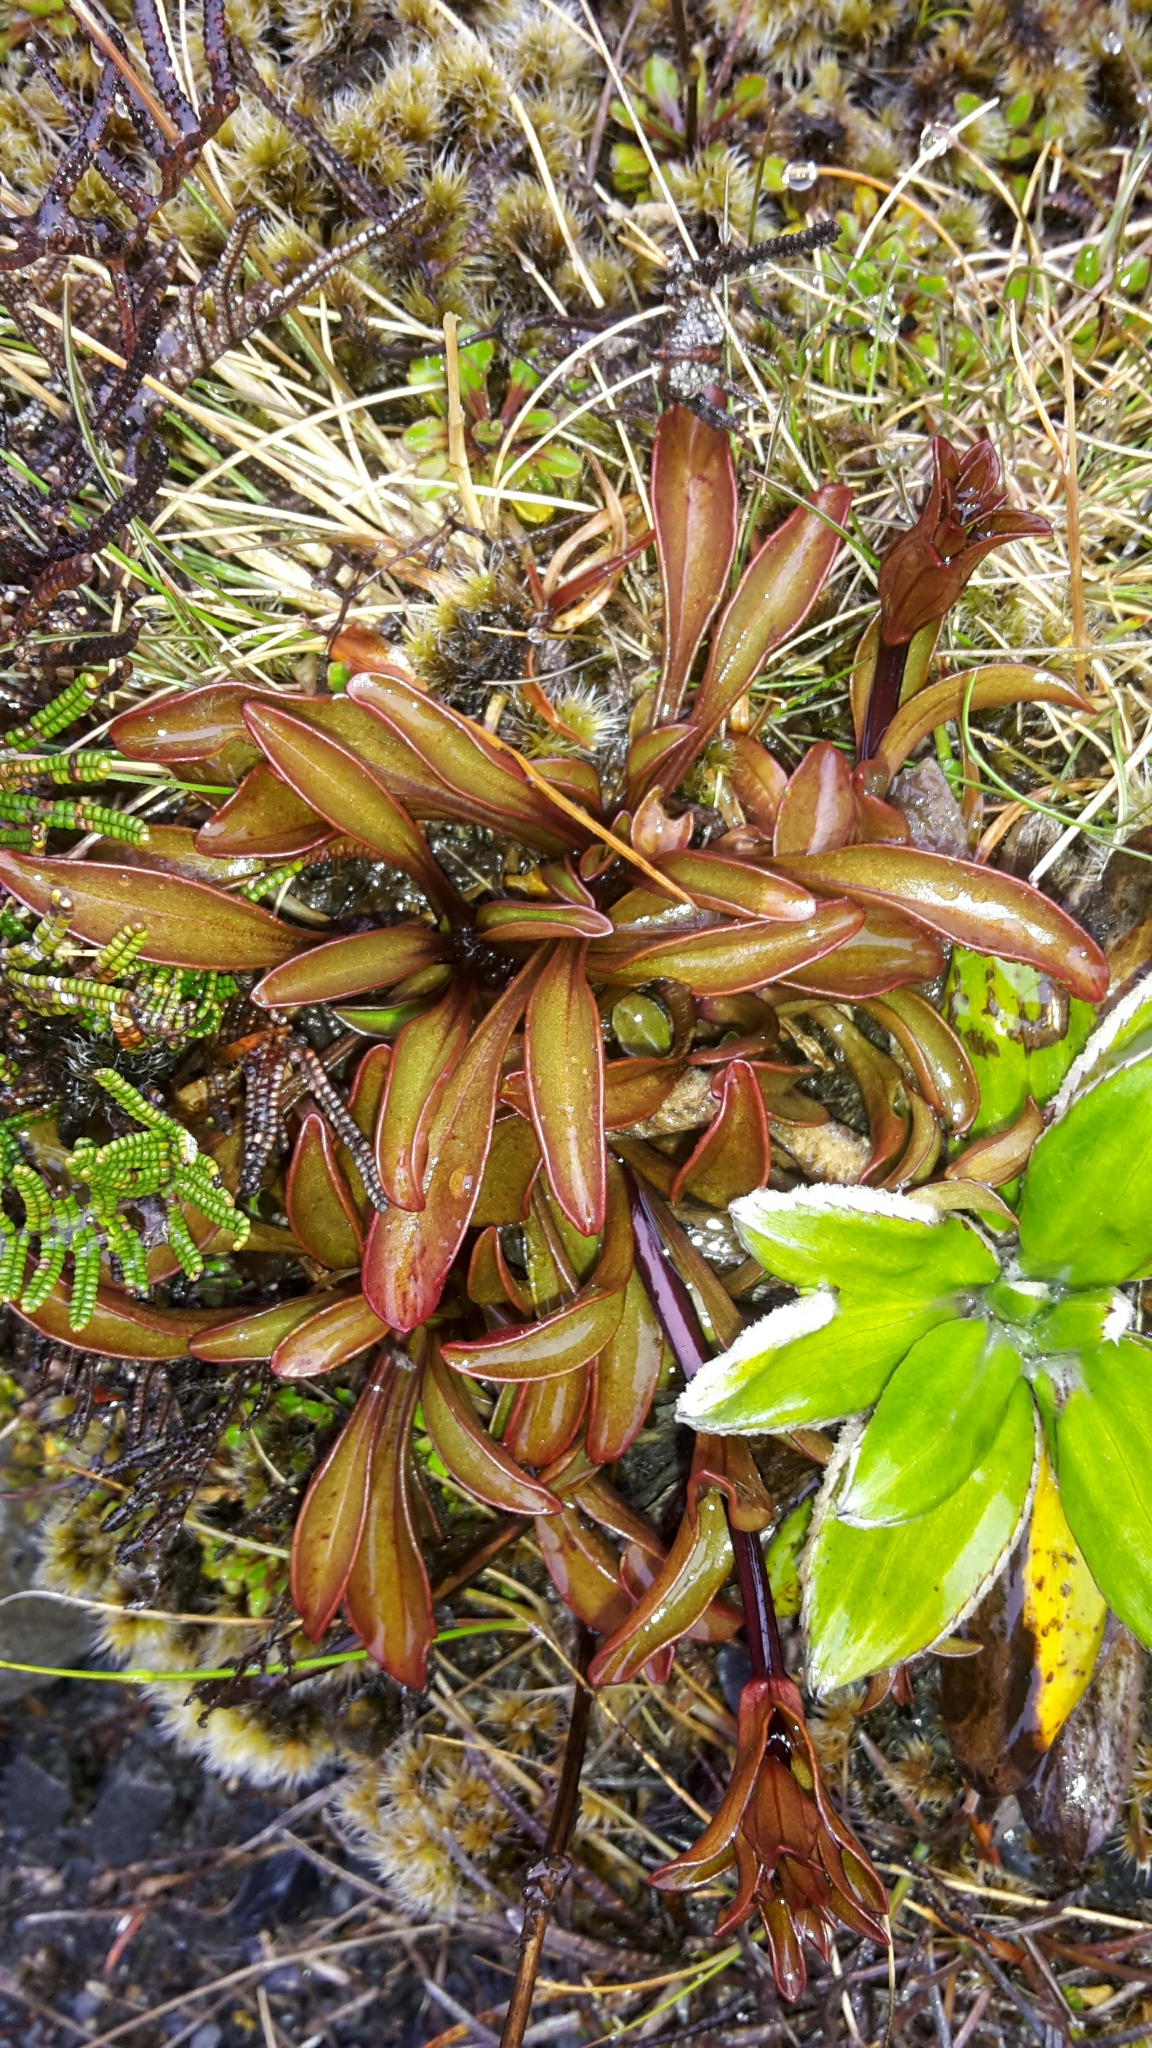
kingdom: Plantae
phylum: Tracheophyta
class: Magnoliopsida
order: Gentianales
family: Gentianaceae
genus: Gentianella
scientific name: Gentianella bellidifolia
